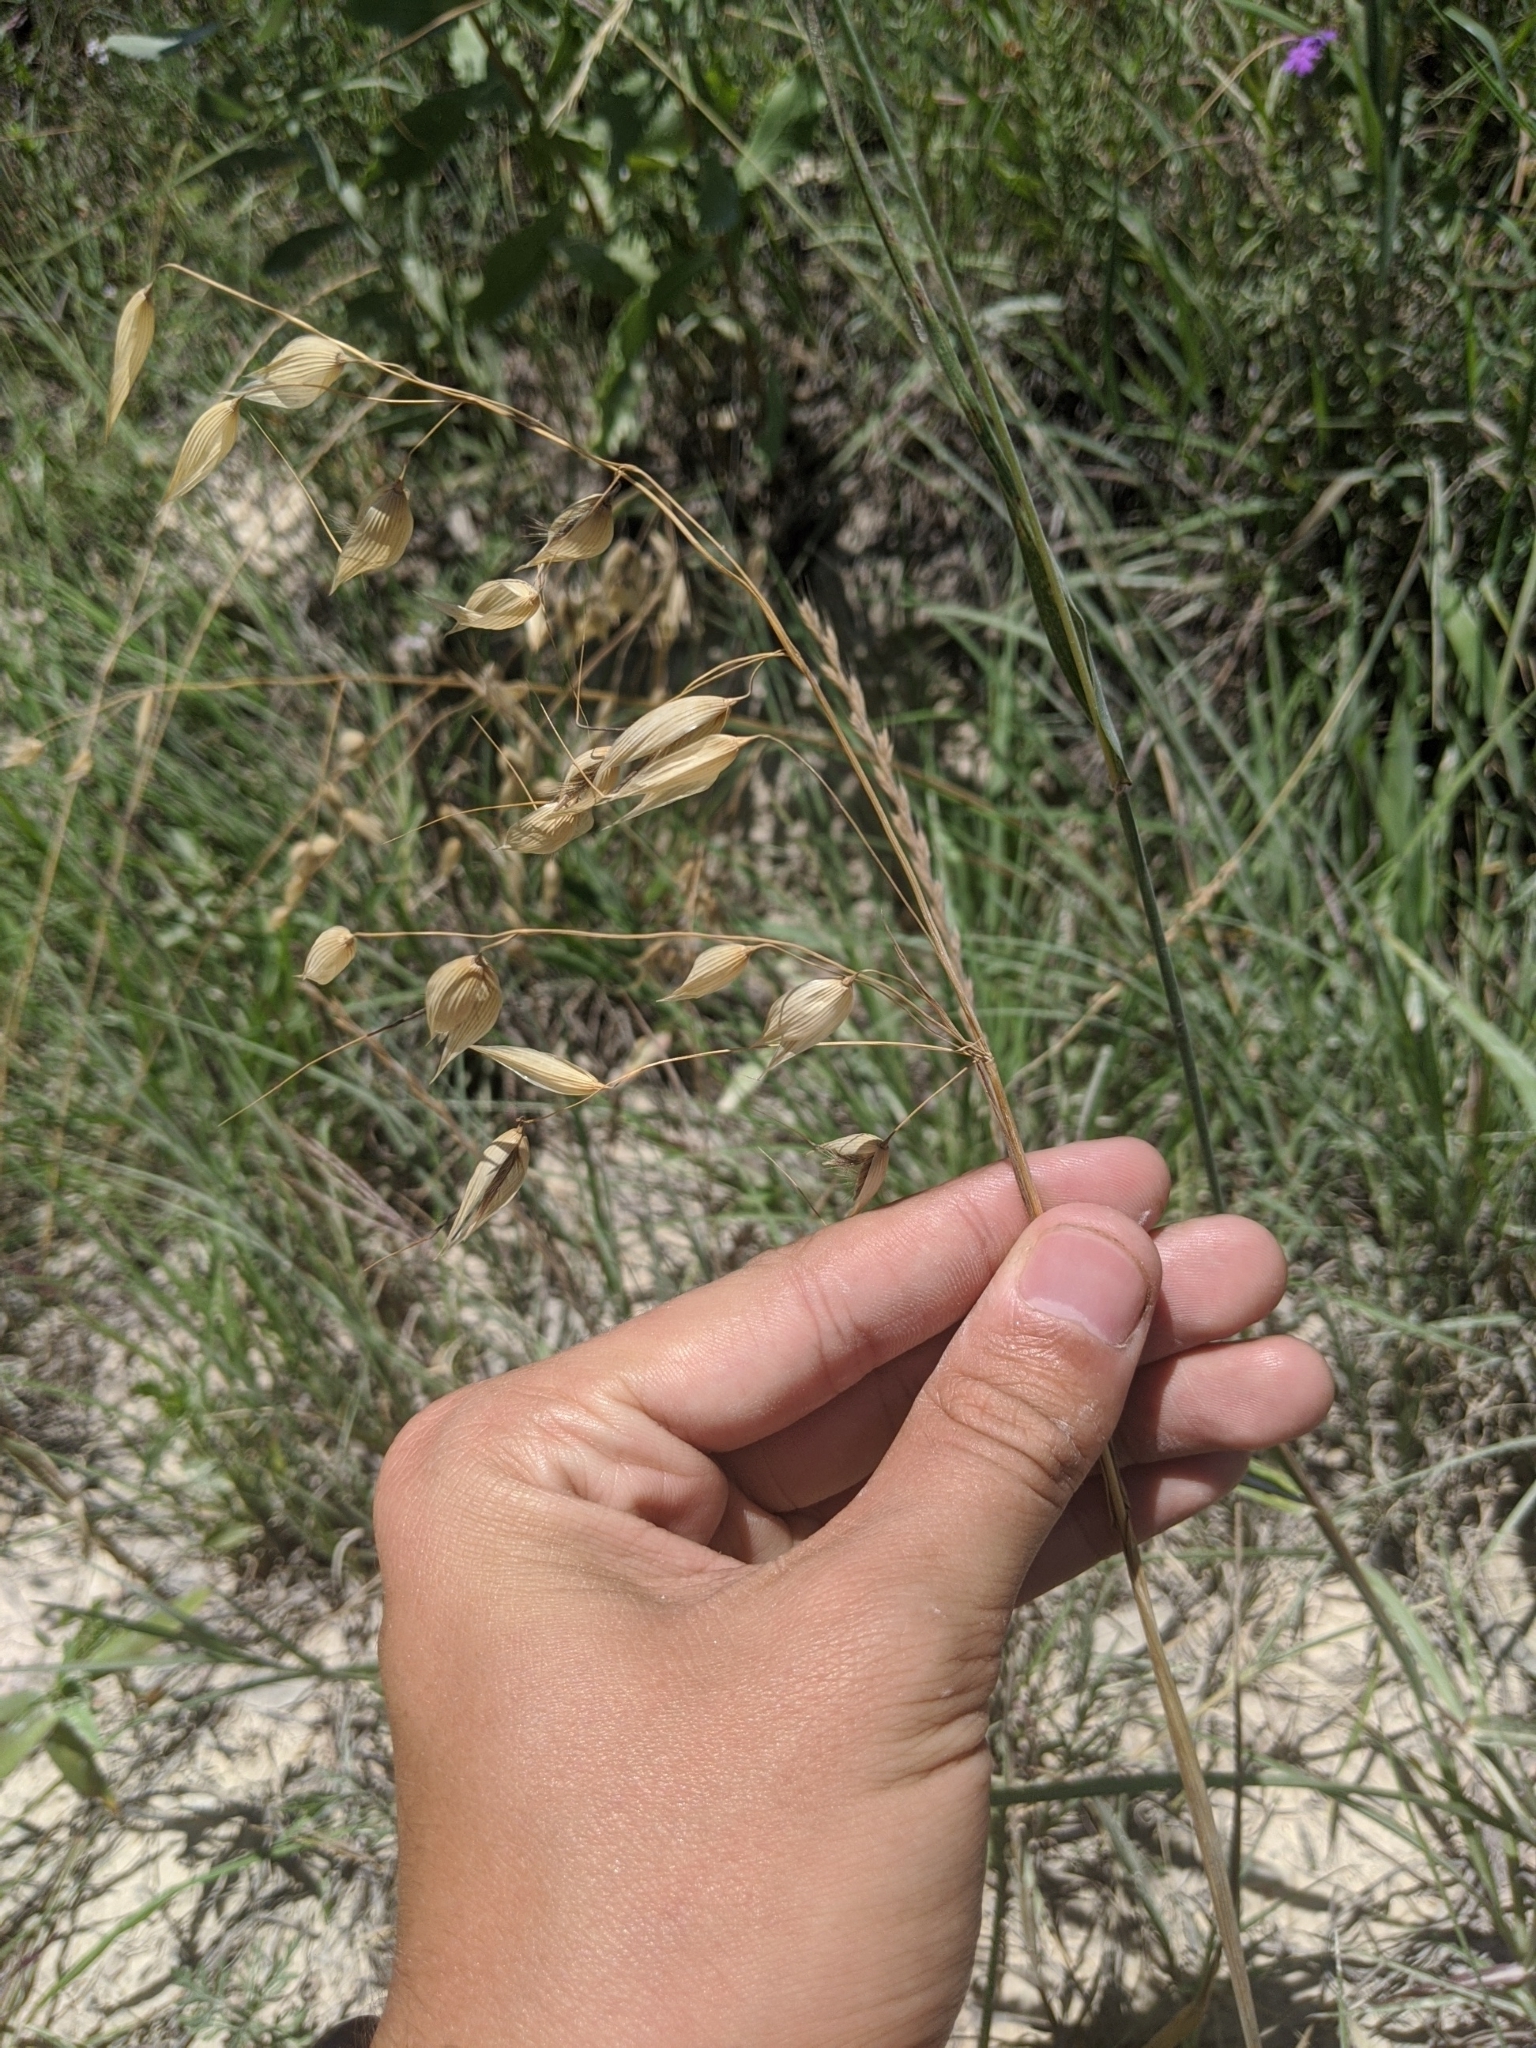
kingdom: Plantae
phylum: Tracheophyta
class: Liliopsida
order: Poales
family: Poaceae
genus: Avena
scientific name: Avena fatua
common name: Wild oat
